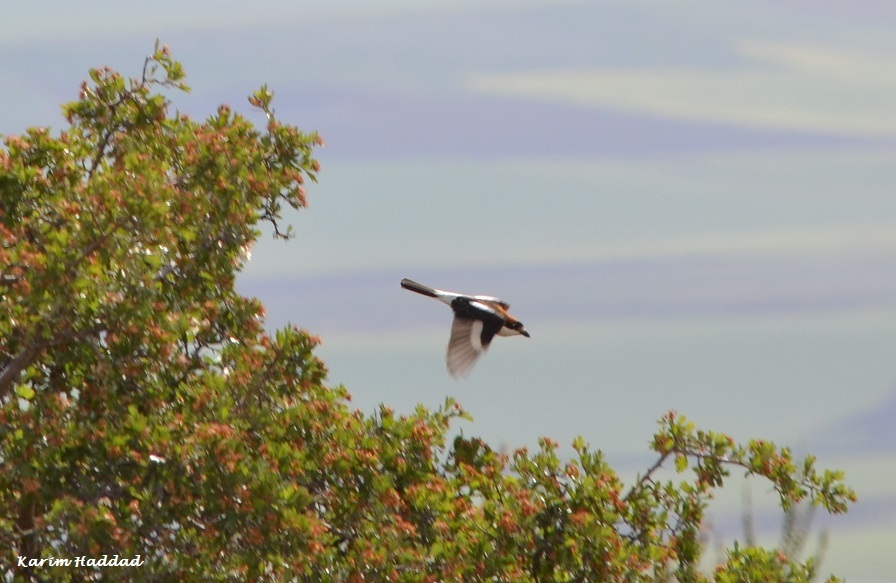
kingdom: Animalia
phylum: Chordata
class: Aves
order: Passeriformes
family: Laniidae
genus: Lanius
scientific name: Lanius senator
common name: Woodchat shrike
